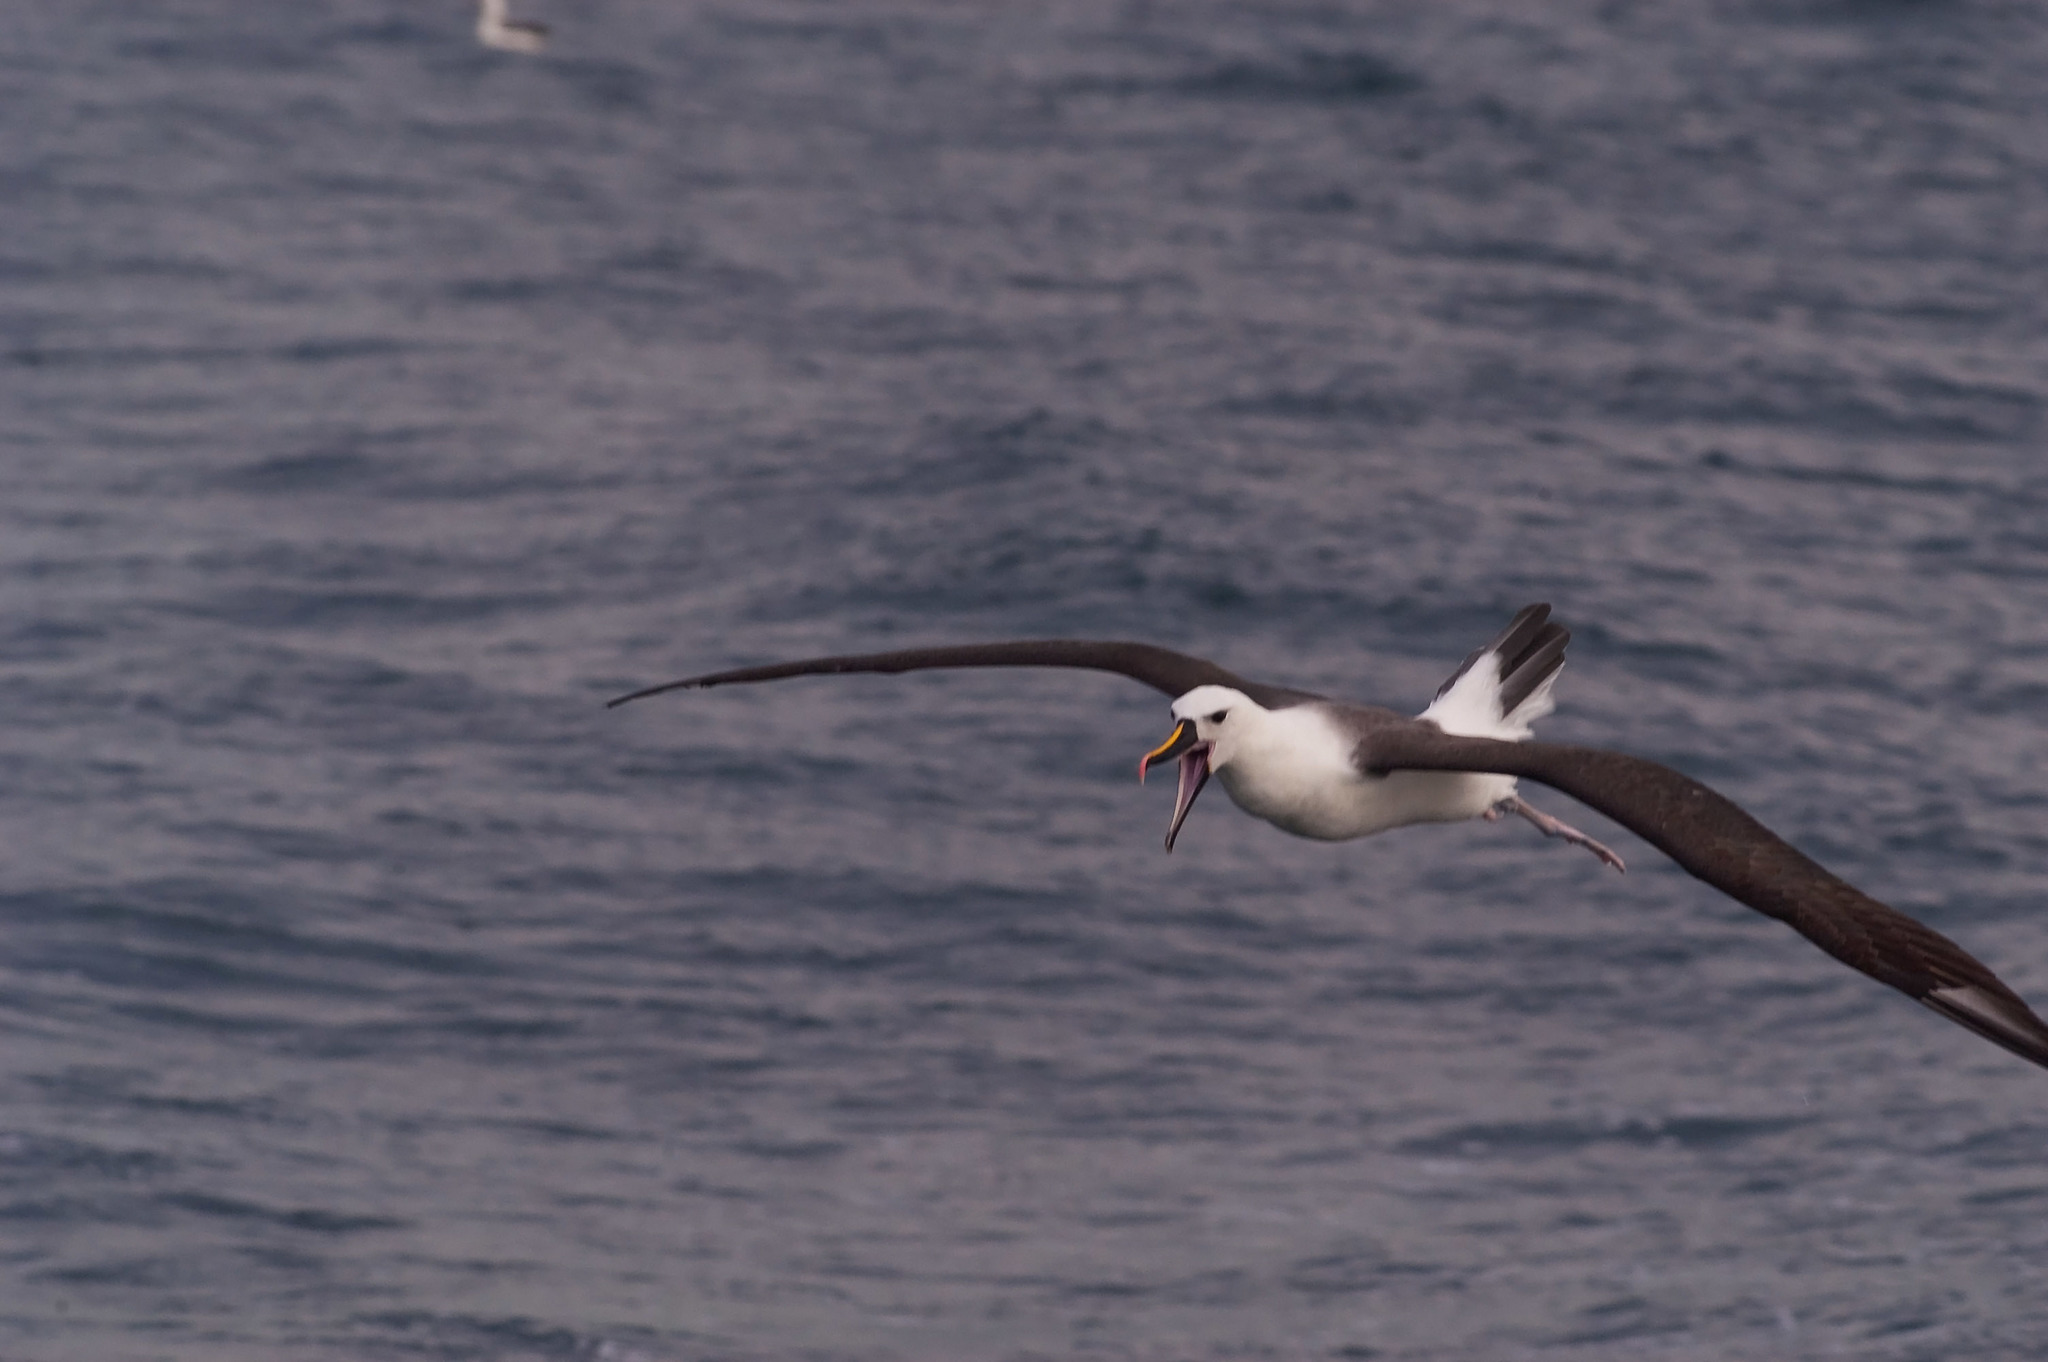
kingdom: Animalia
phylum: Chordata
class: Aves
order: Procellariiformes
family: Diomedeidae
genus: Thalassarche
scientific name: Thalassarche carteri
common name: Indian yellow-nosed albatross
